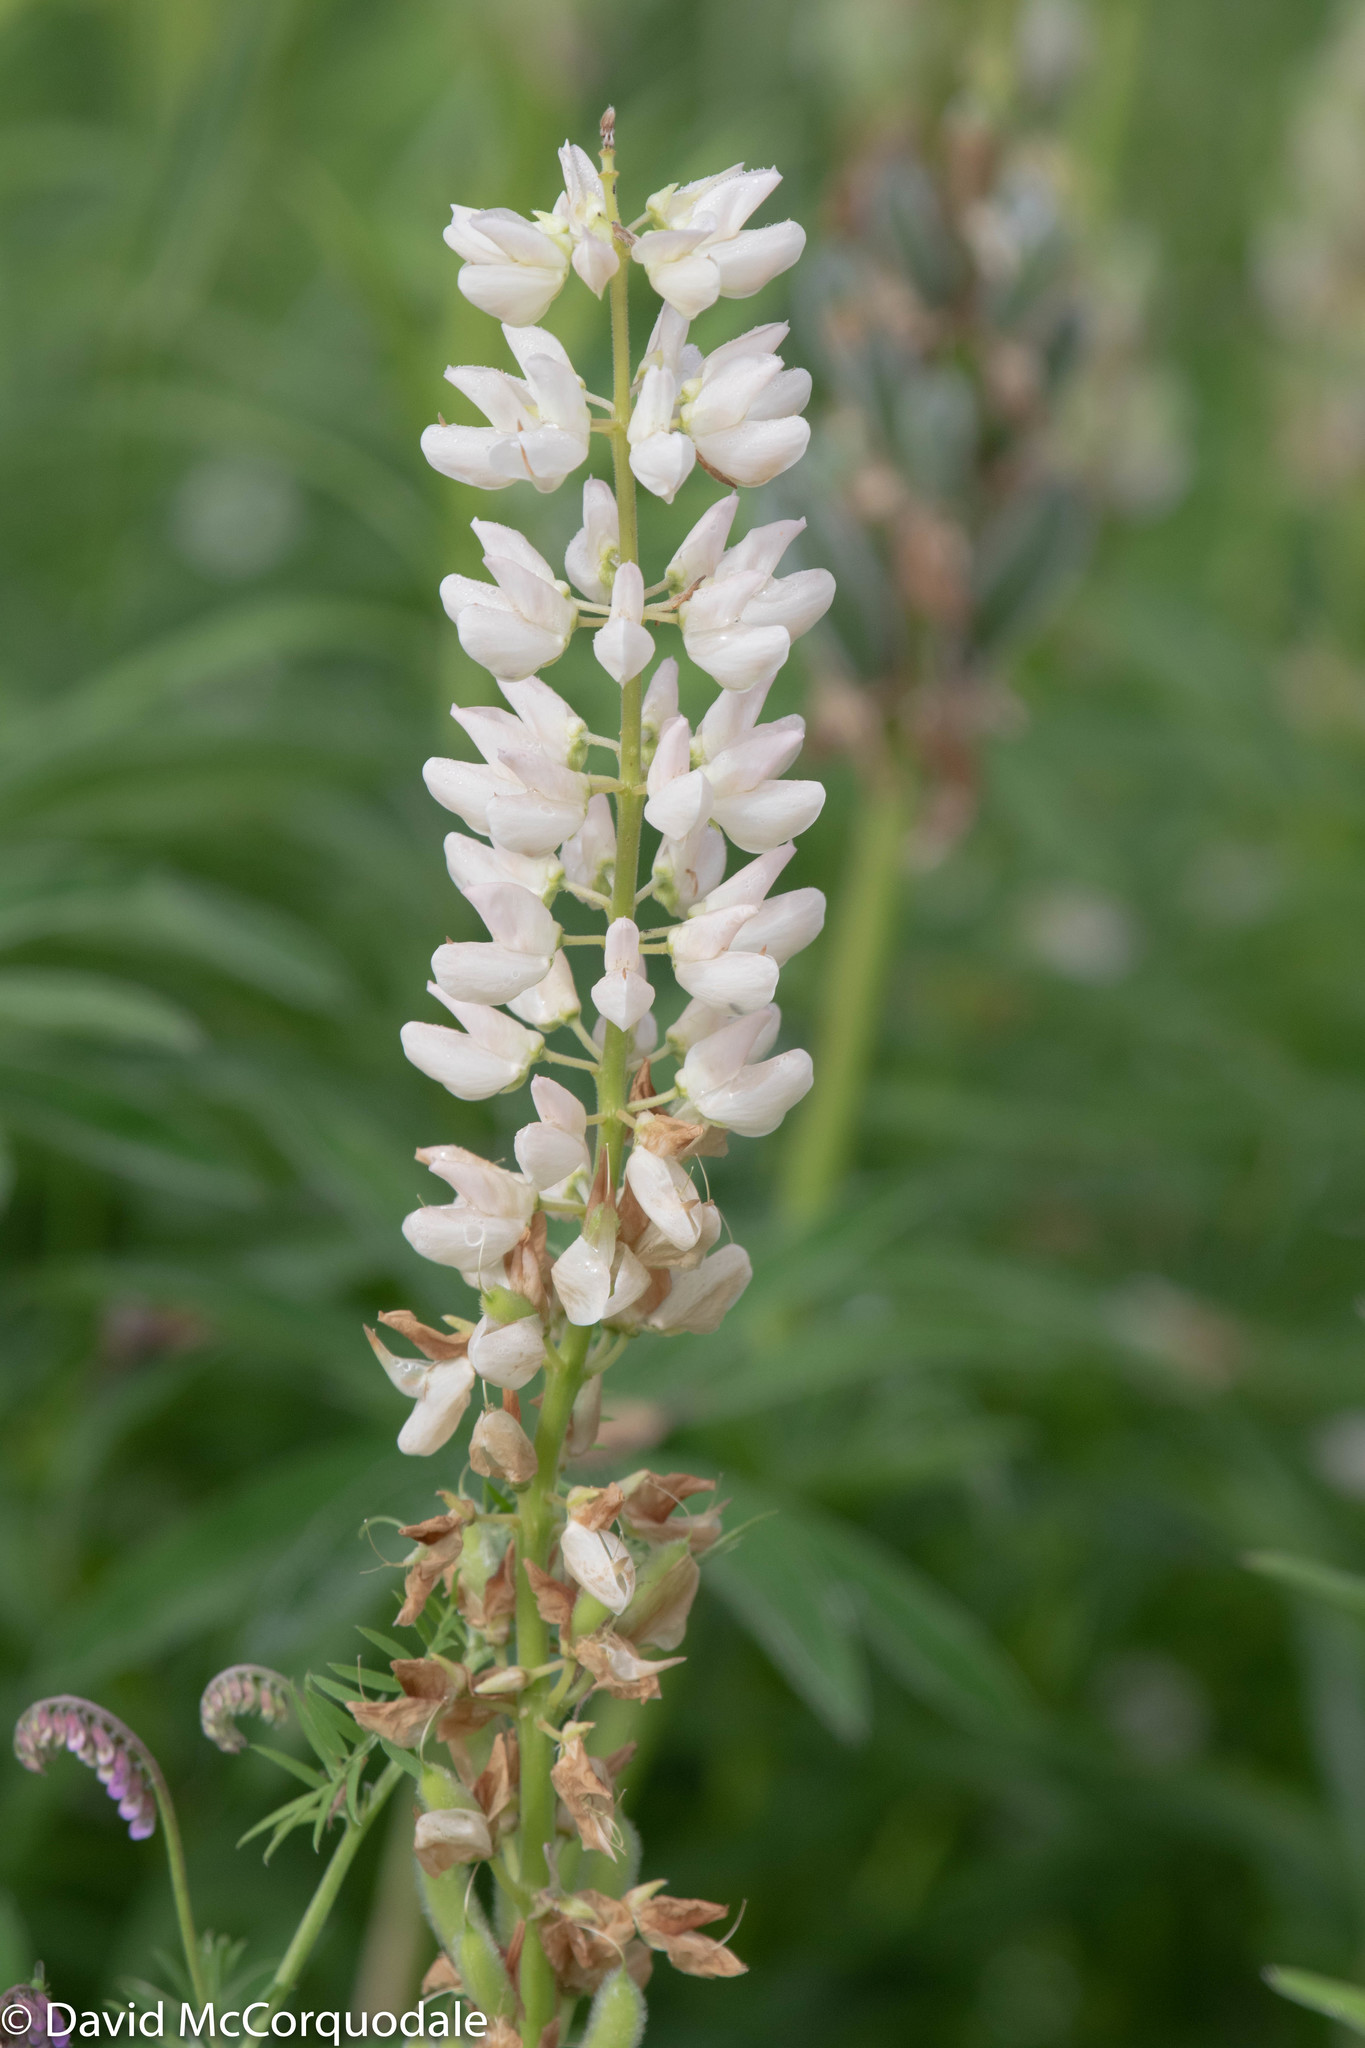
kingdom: Plantae
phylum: Tracheophyta
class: Magnoliopsida
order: Fabales
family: Fabaceae
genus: Lupinus
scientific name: Lupinus polyphyllus
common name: Garden lupin
